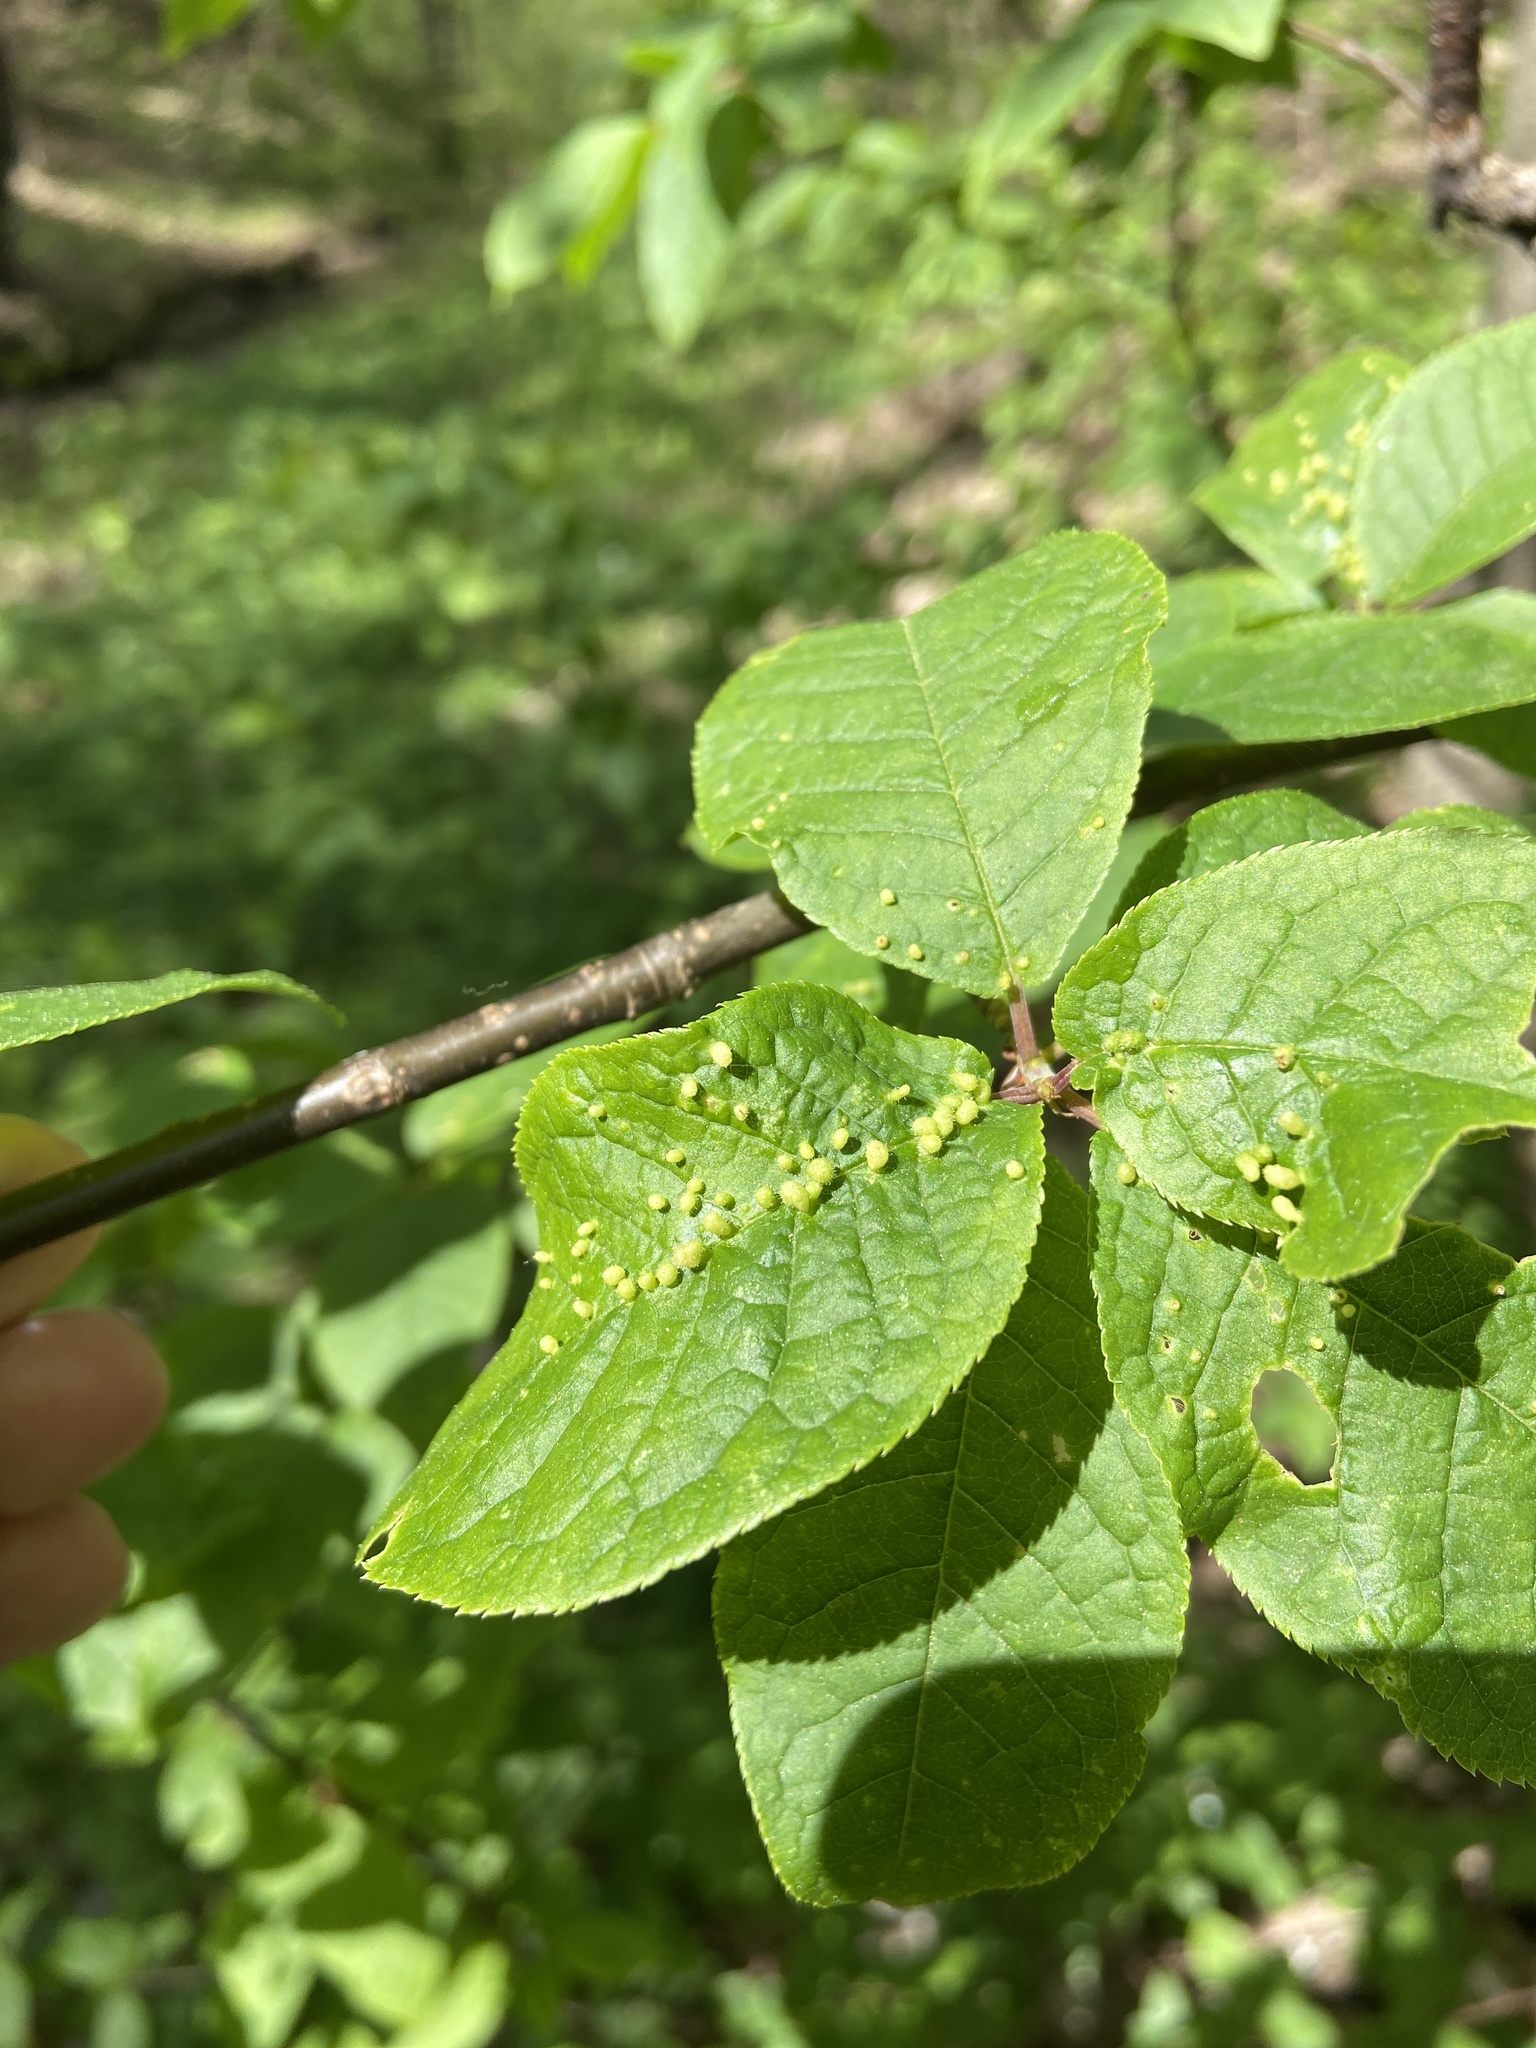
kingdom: Animalia
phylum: Arthropoda
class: Arachnida
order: Trombidiformes
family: Eriophyidae
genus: Phyllocoptes
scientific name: Phyllocoptes eupadi
